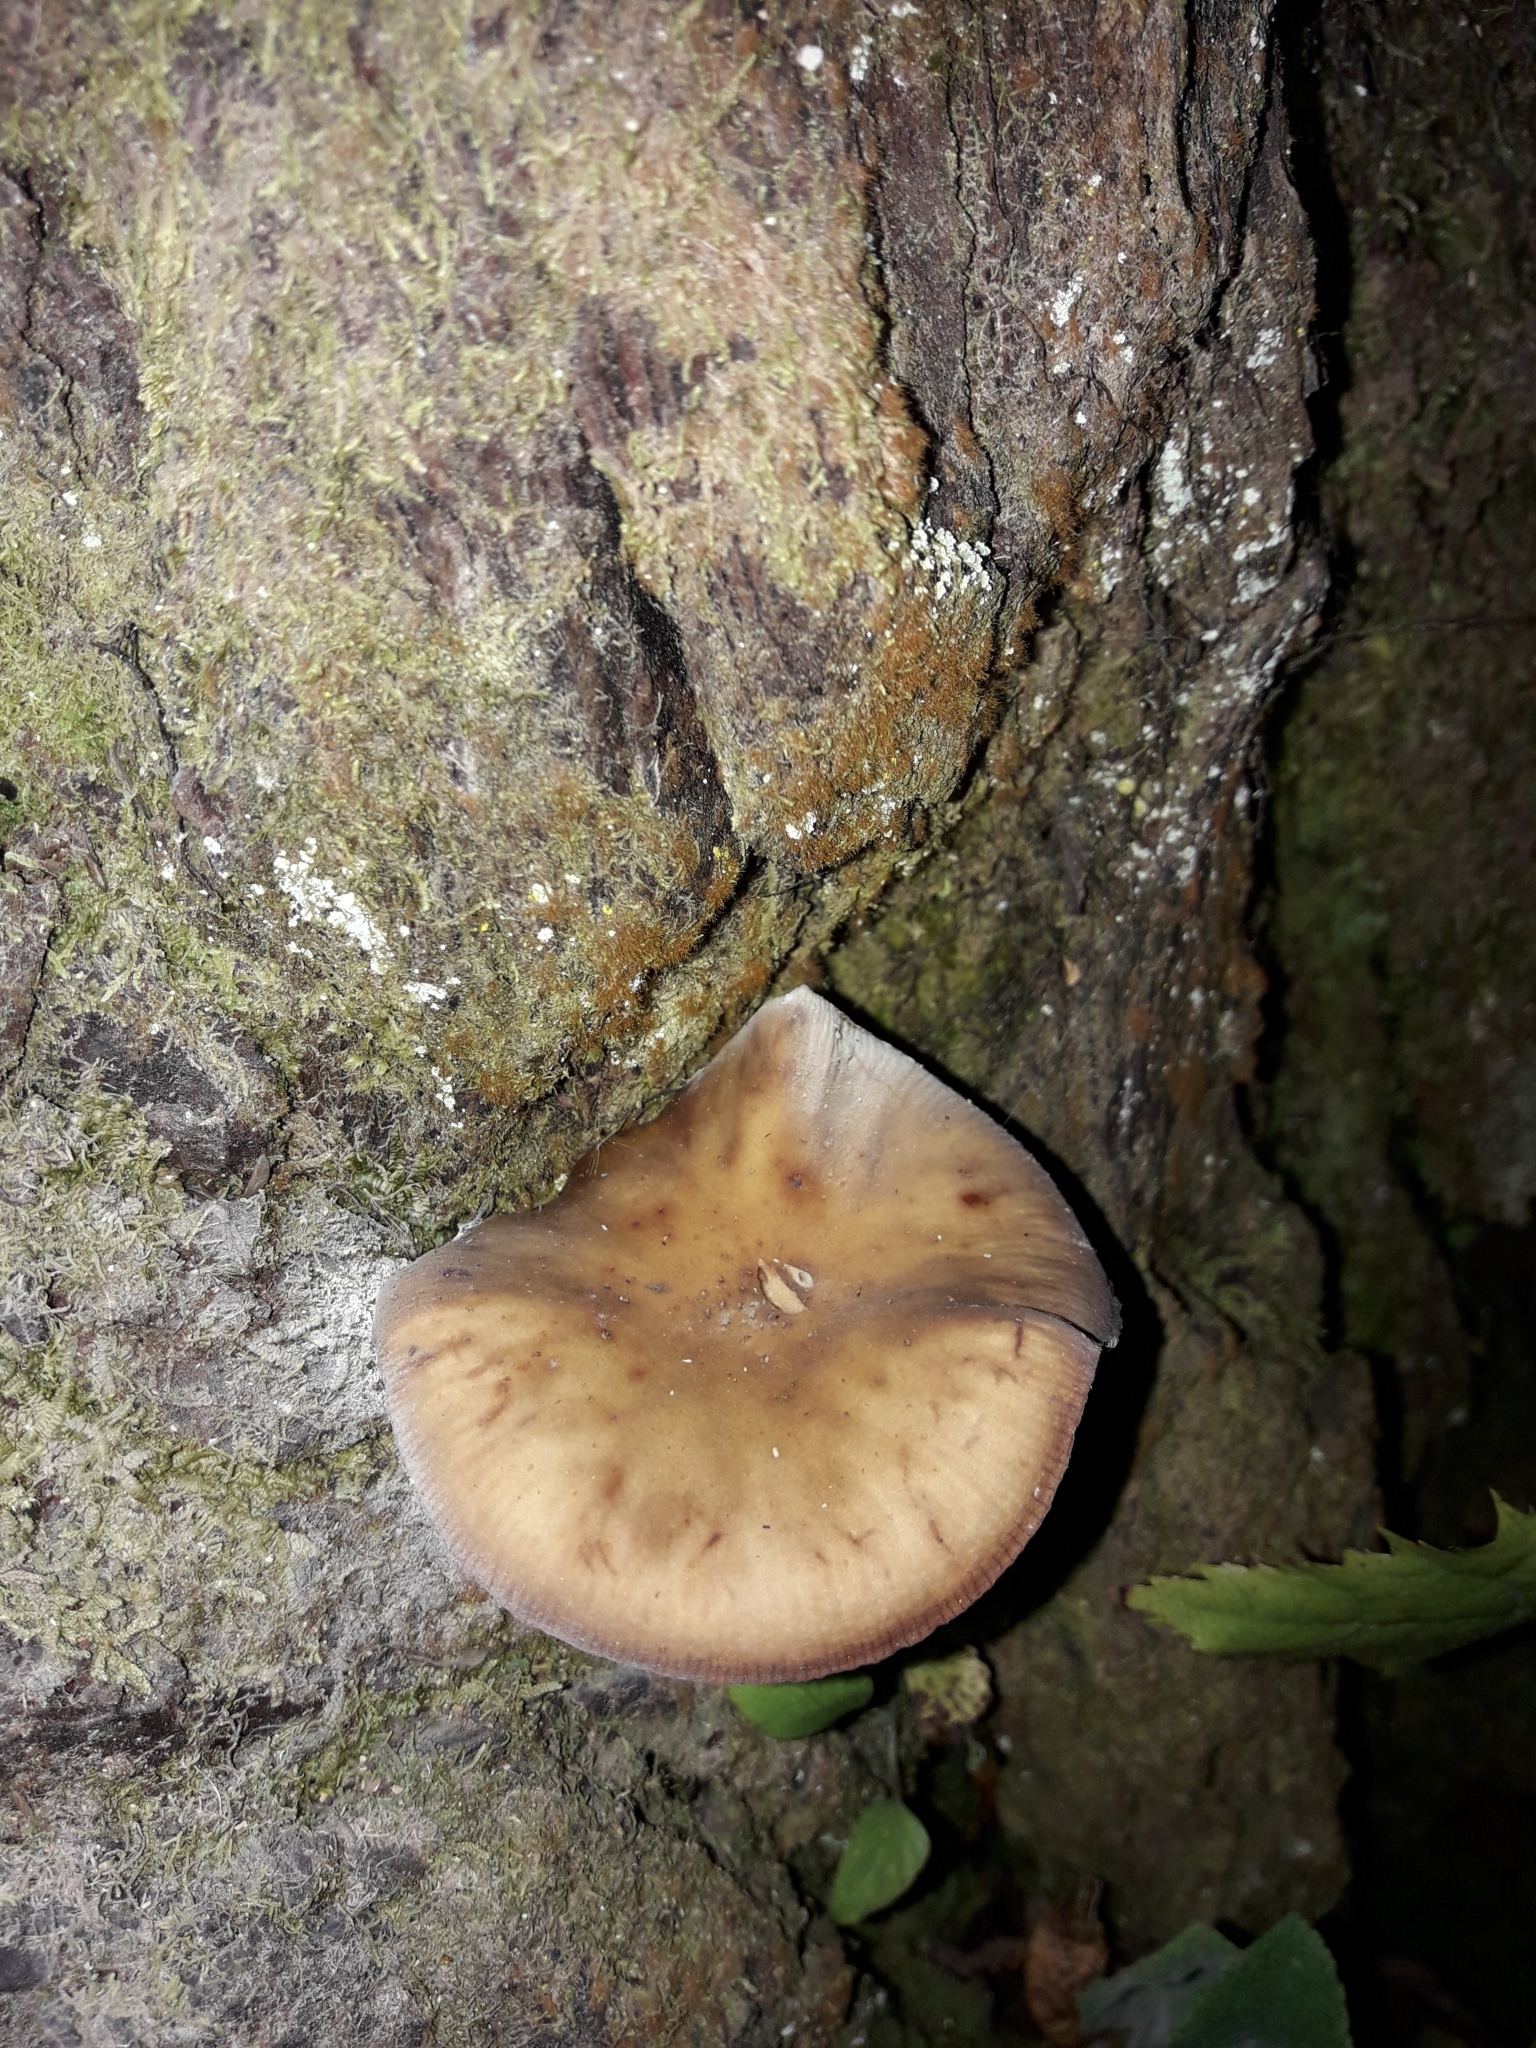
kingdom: Fungi
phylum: Basidiomycota
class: Agaricomycetes
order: Agaricales
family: Physalacriaceae
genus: Armillaria
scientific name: Armillaria novae-zelandiae
